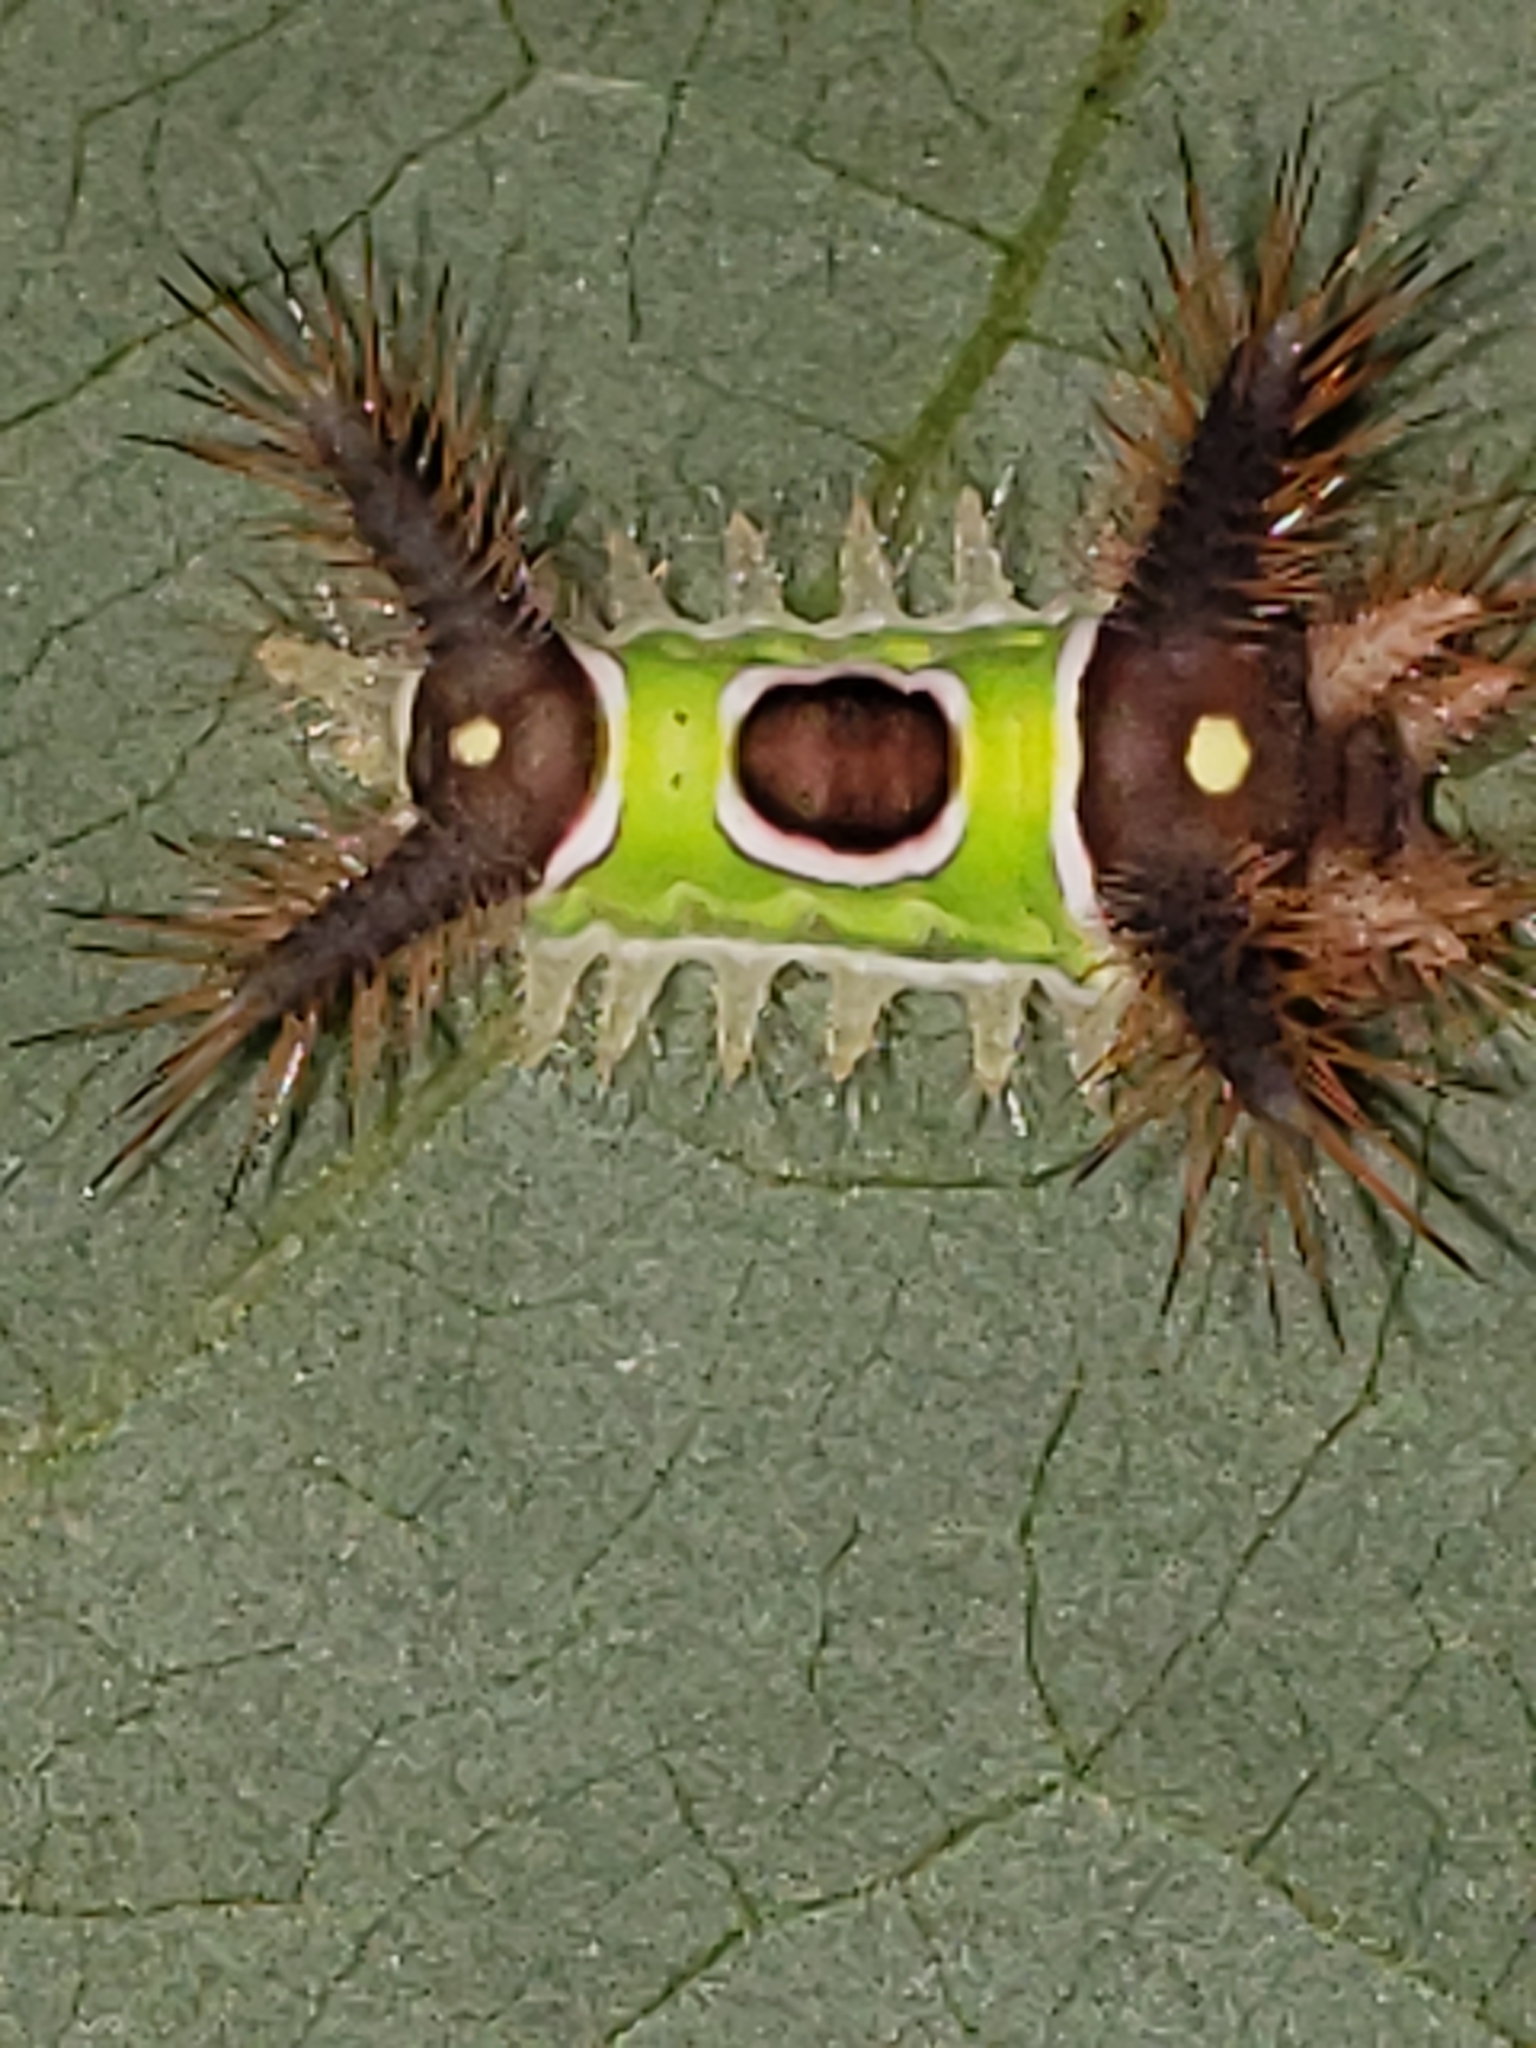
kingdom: Animalia
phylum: Arthropoda
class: Insecta
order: Lepidoptera
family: Limacodidae
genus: Acharia
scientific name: Acharia stimulea
